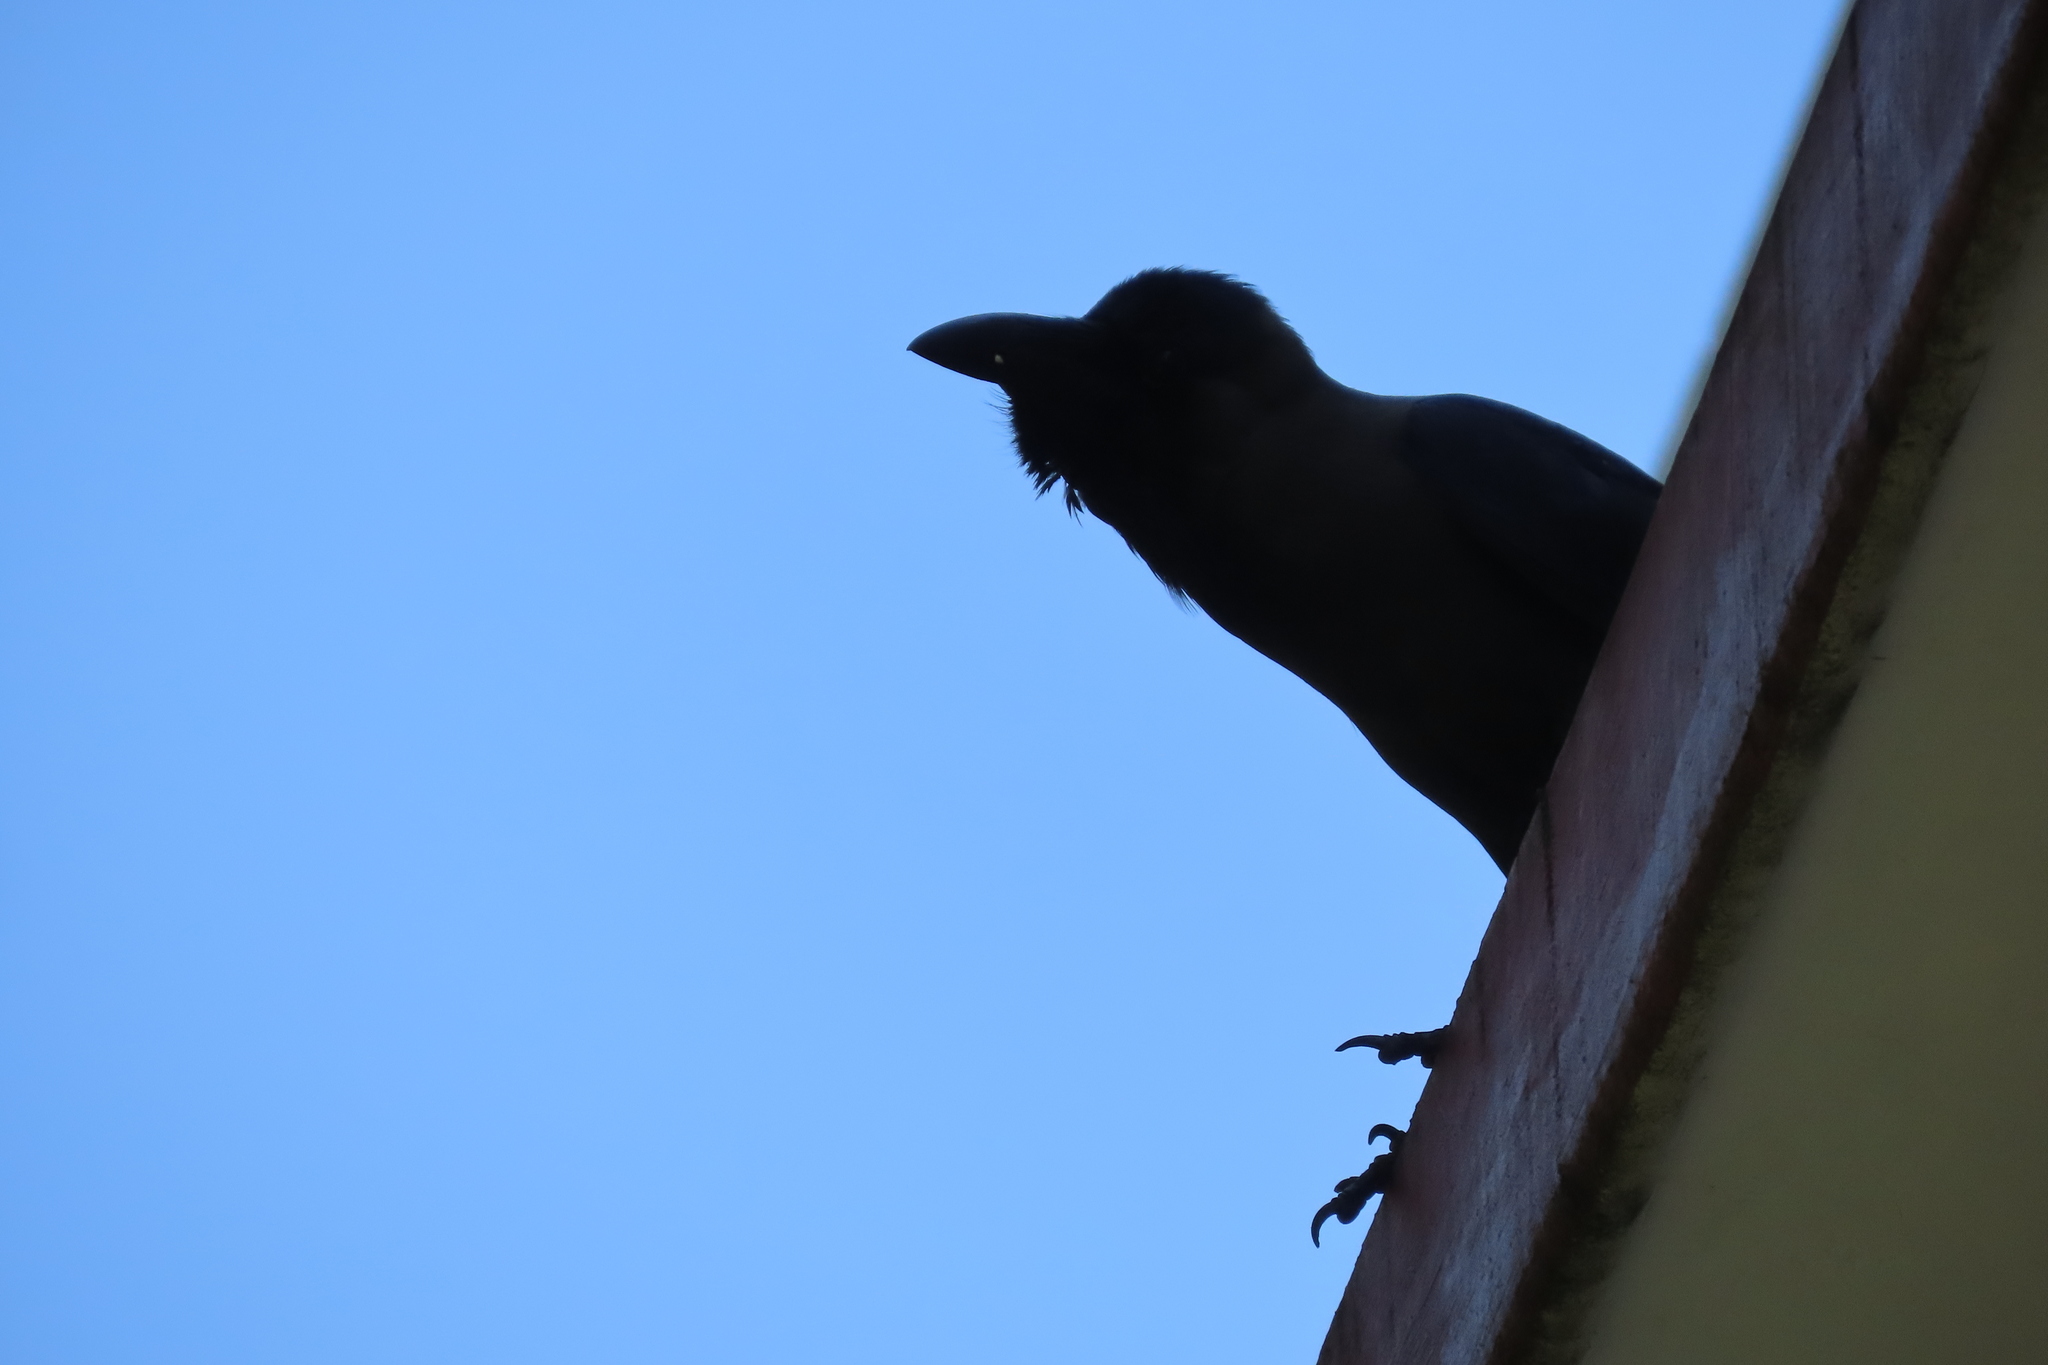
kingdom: Animalia
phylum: Chordata
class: Aves
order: Passeriformes
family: Corvidae
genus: Corvus
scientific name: Corvus splendens
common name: House crow
